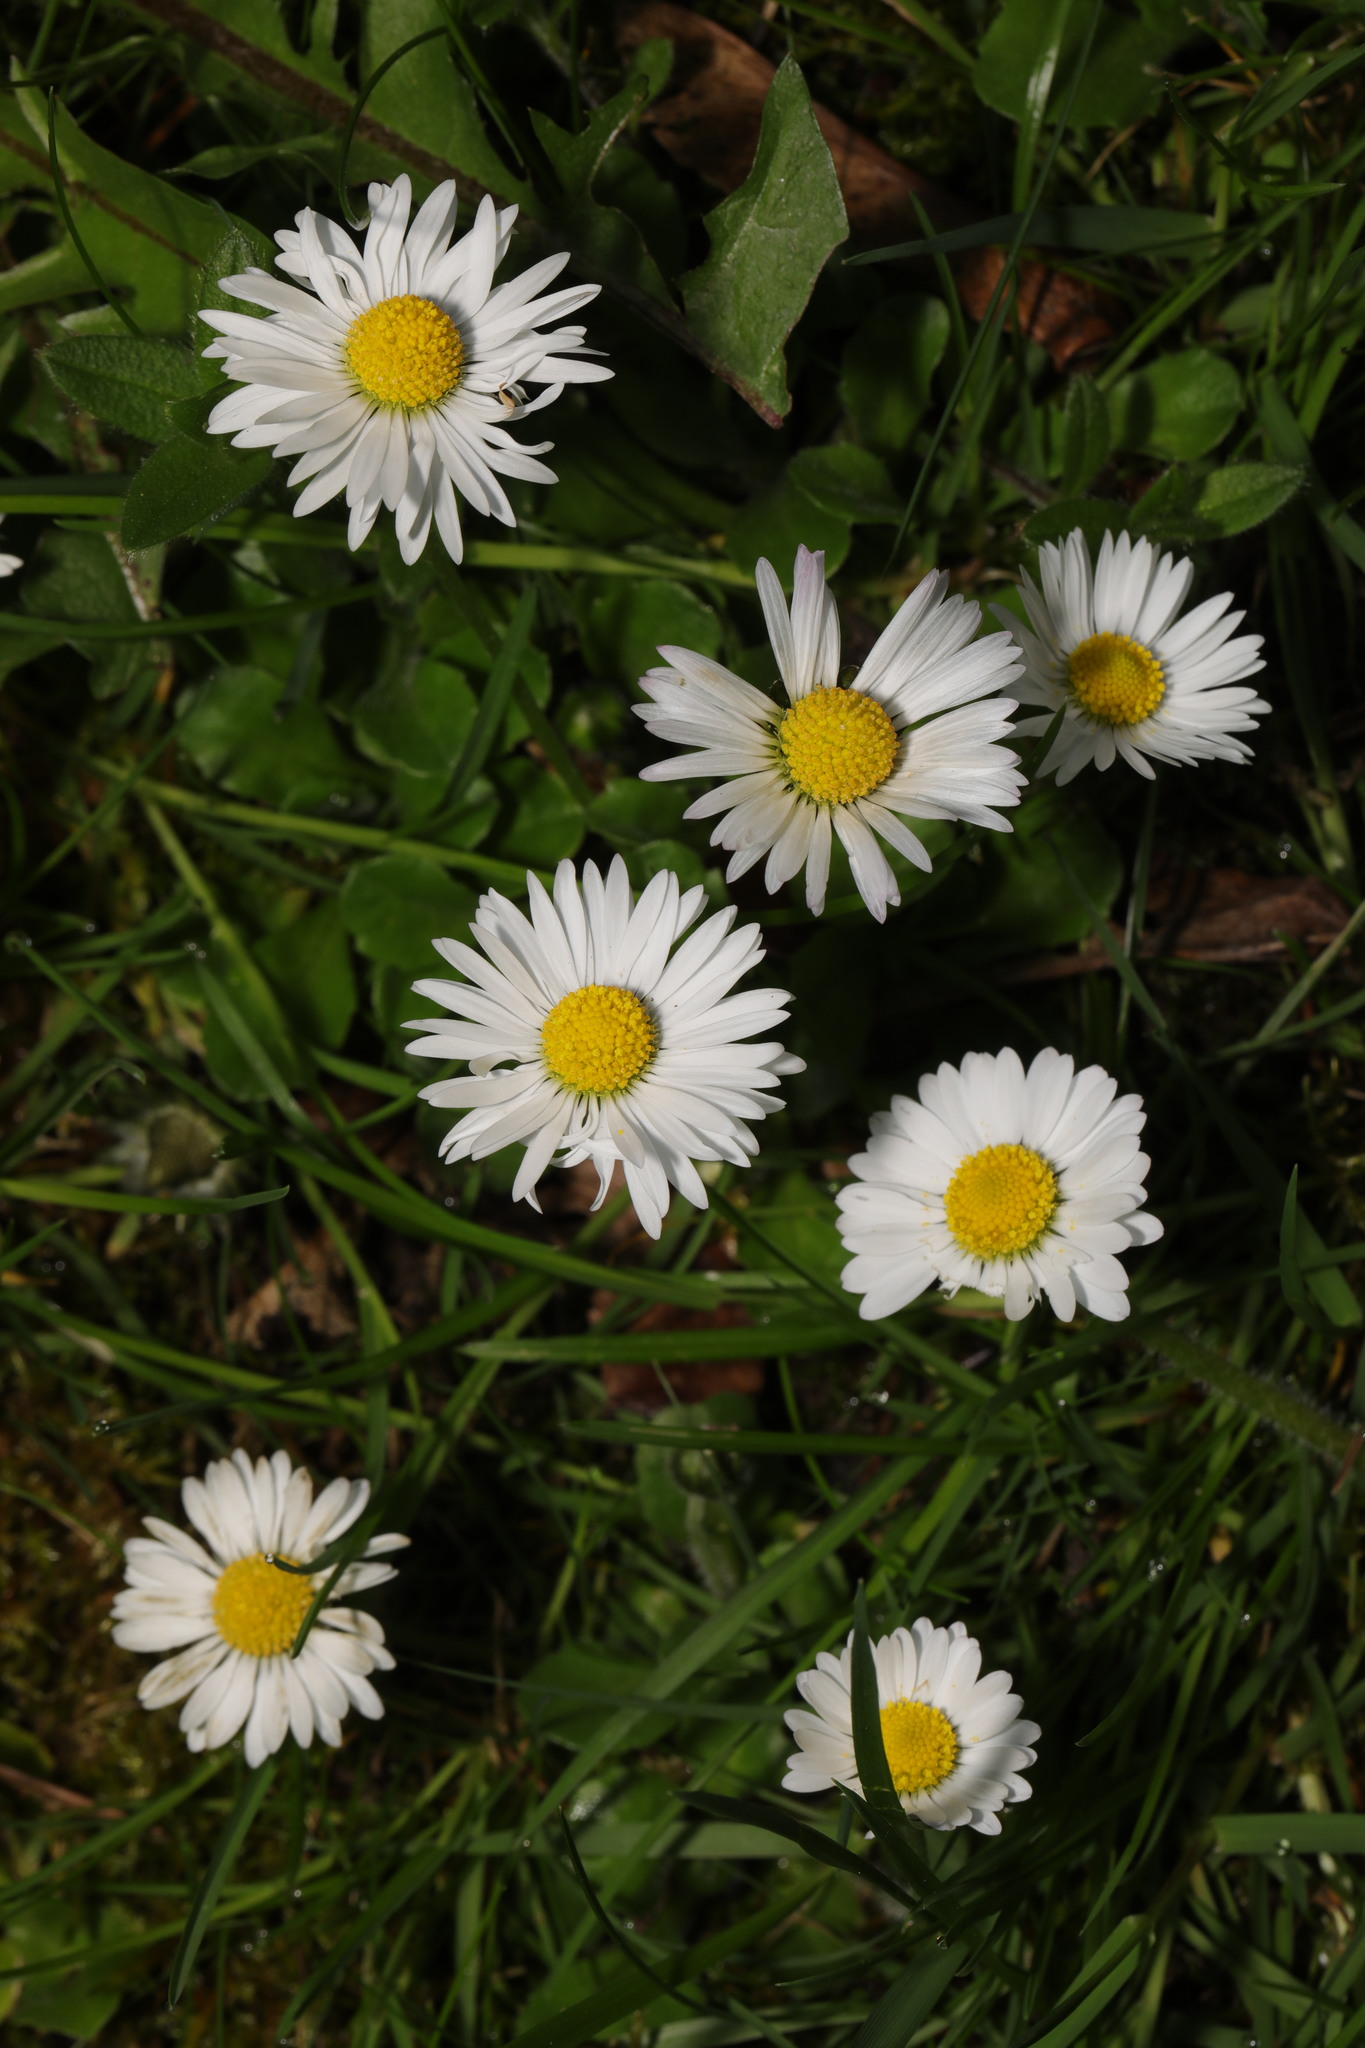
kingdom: Plantae
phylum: Tracheophyta
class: Magnoliopsida
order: Asterales
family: Asteraceae
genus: Bellis
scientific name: Bellis perennis
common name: Lawndaisy
